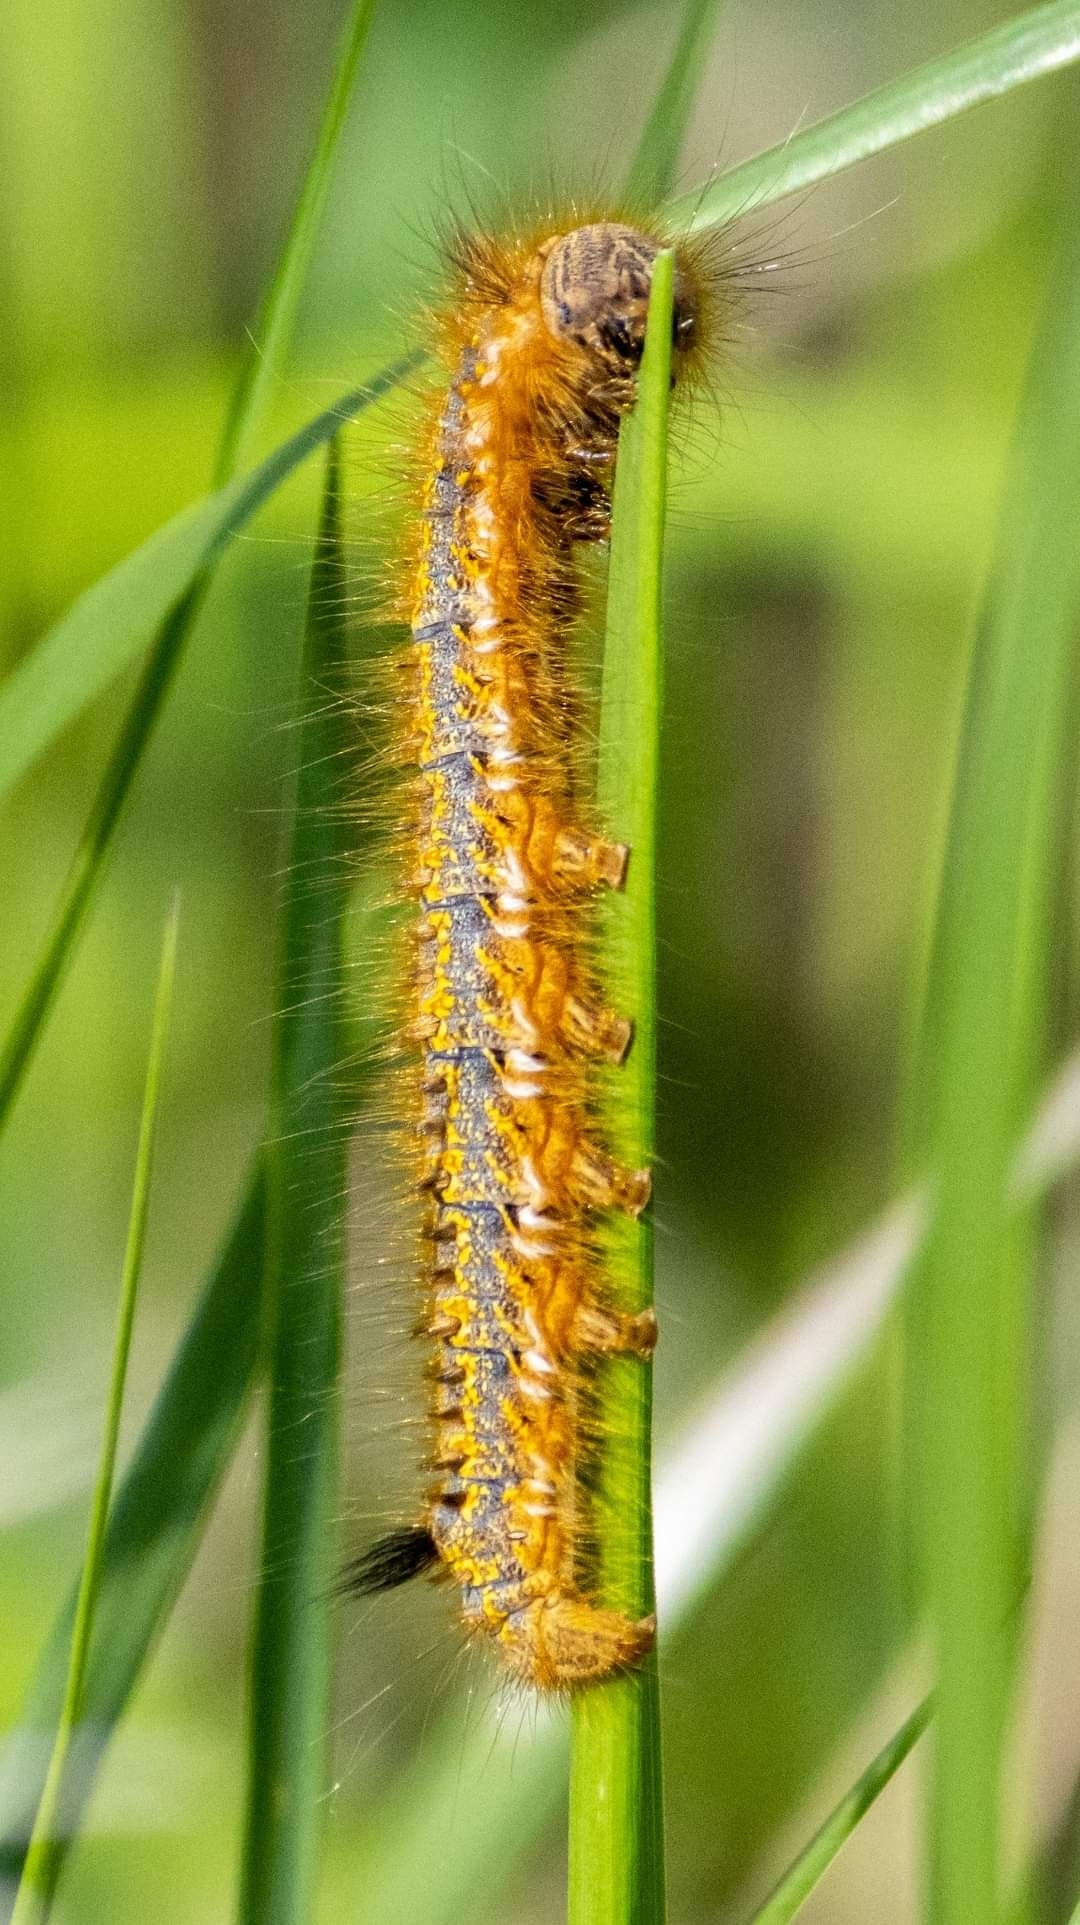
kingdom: Animalia
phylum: Arthropoda
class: Insecta
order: Lepidoptera
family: Lasiocampidae
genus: Euthrix
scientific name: Euthrix potatoria
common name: Drinker
